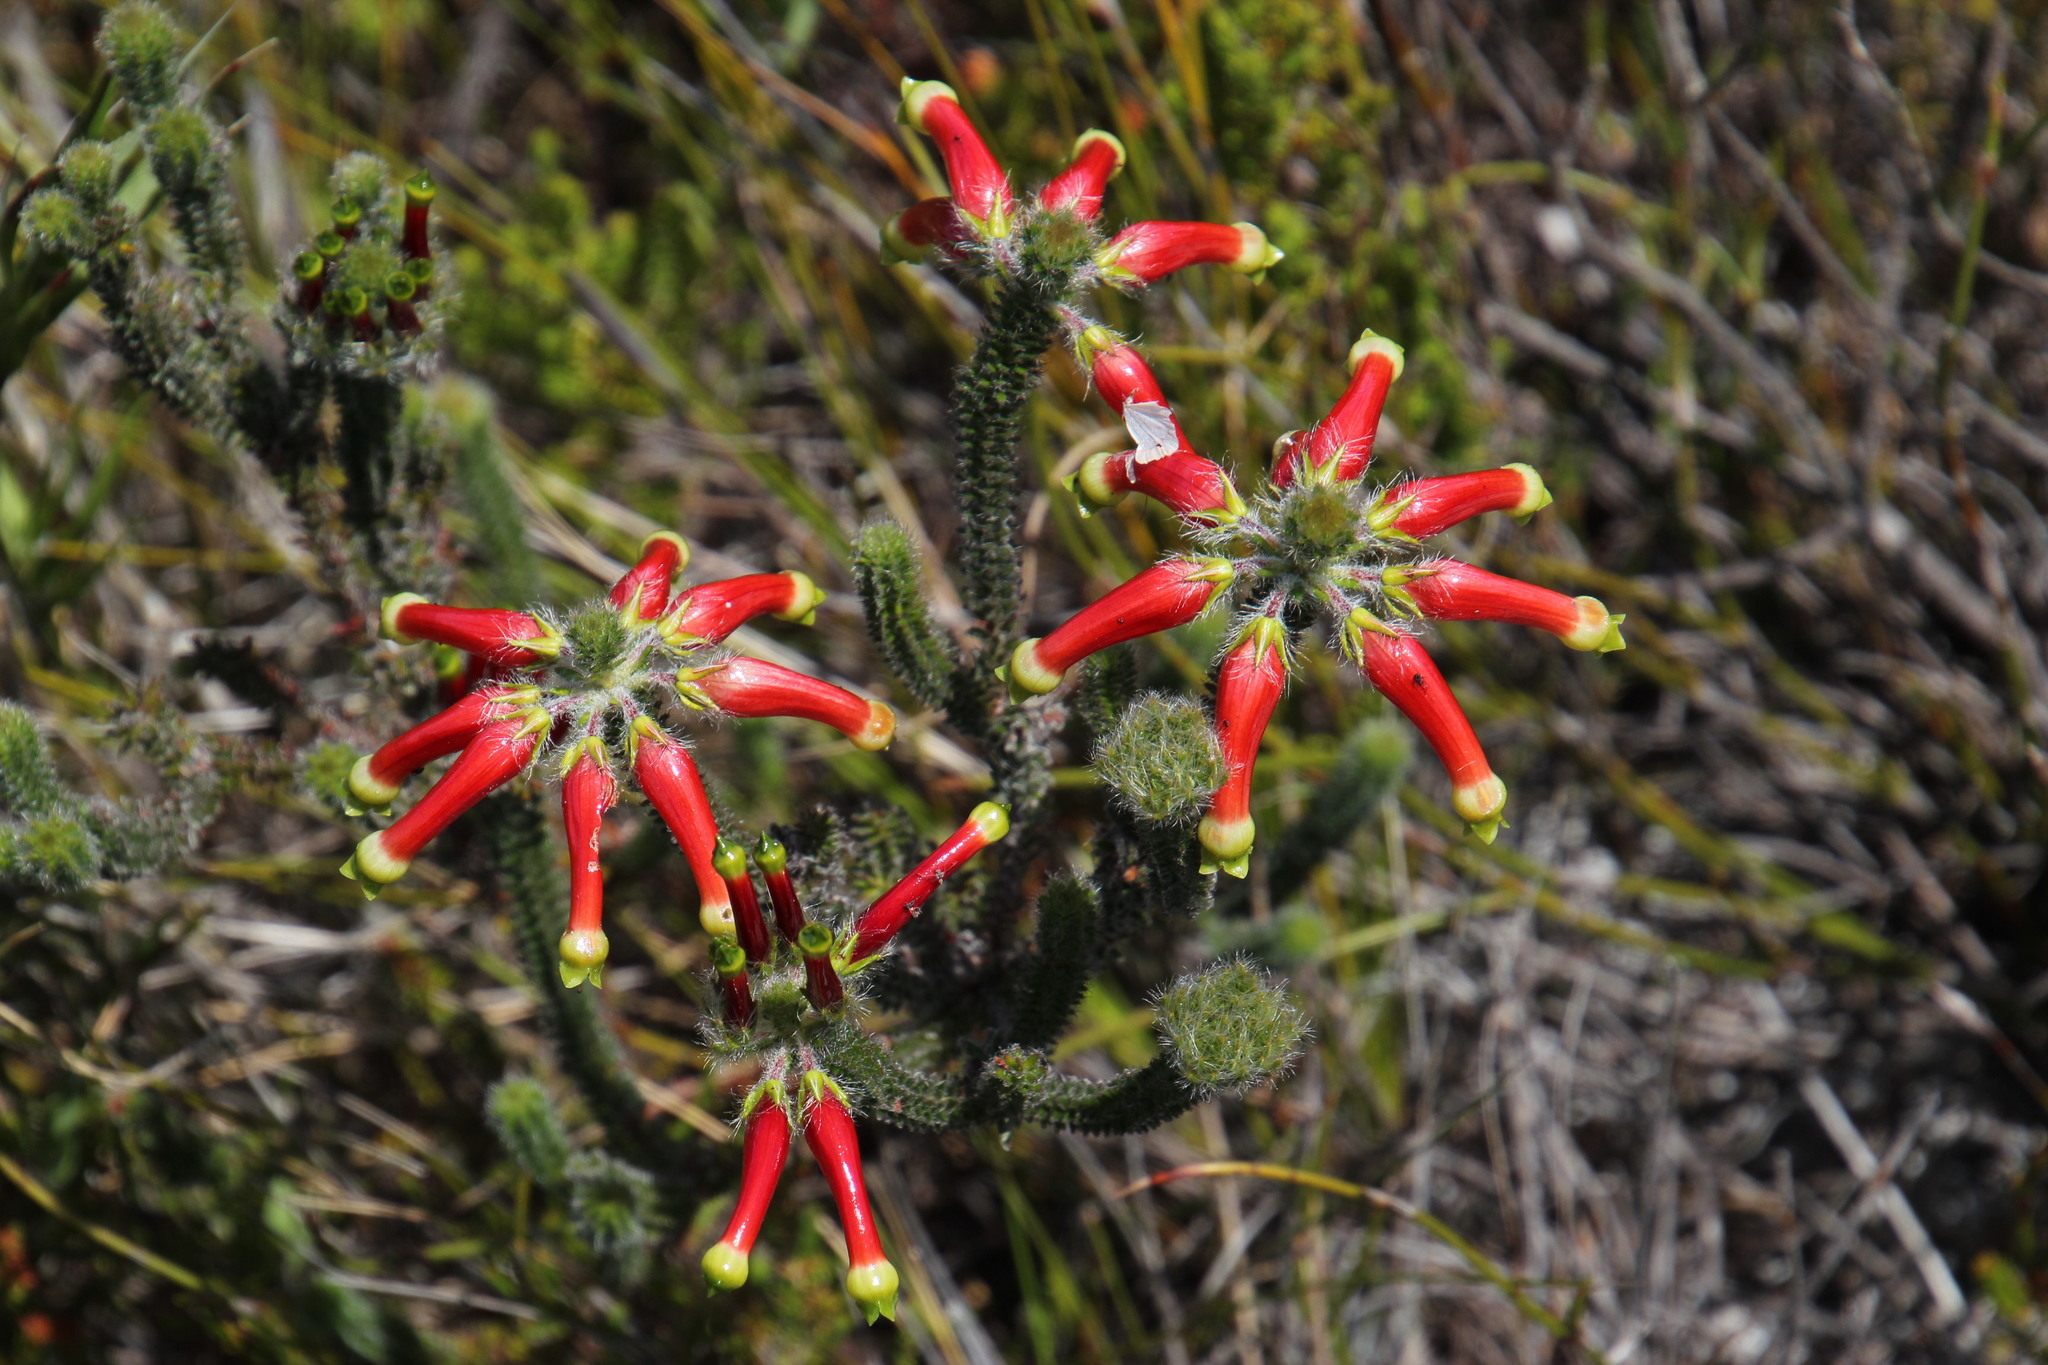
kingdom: Plantae
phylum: Tracheophyta
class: Magnoliopsida
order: Ericales
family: Ericaceae
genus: Erica
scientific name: Erica massonii
